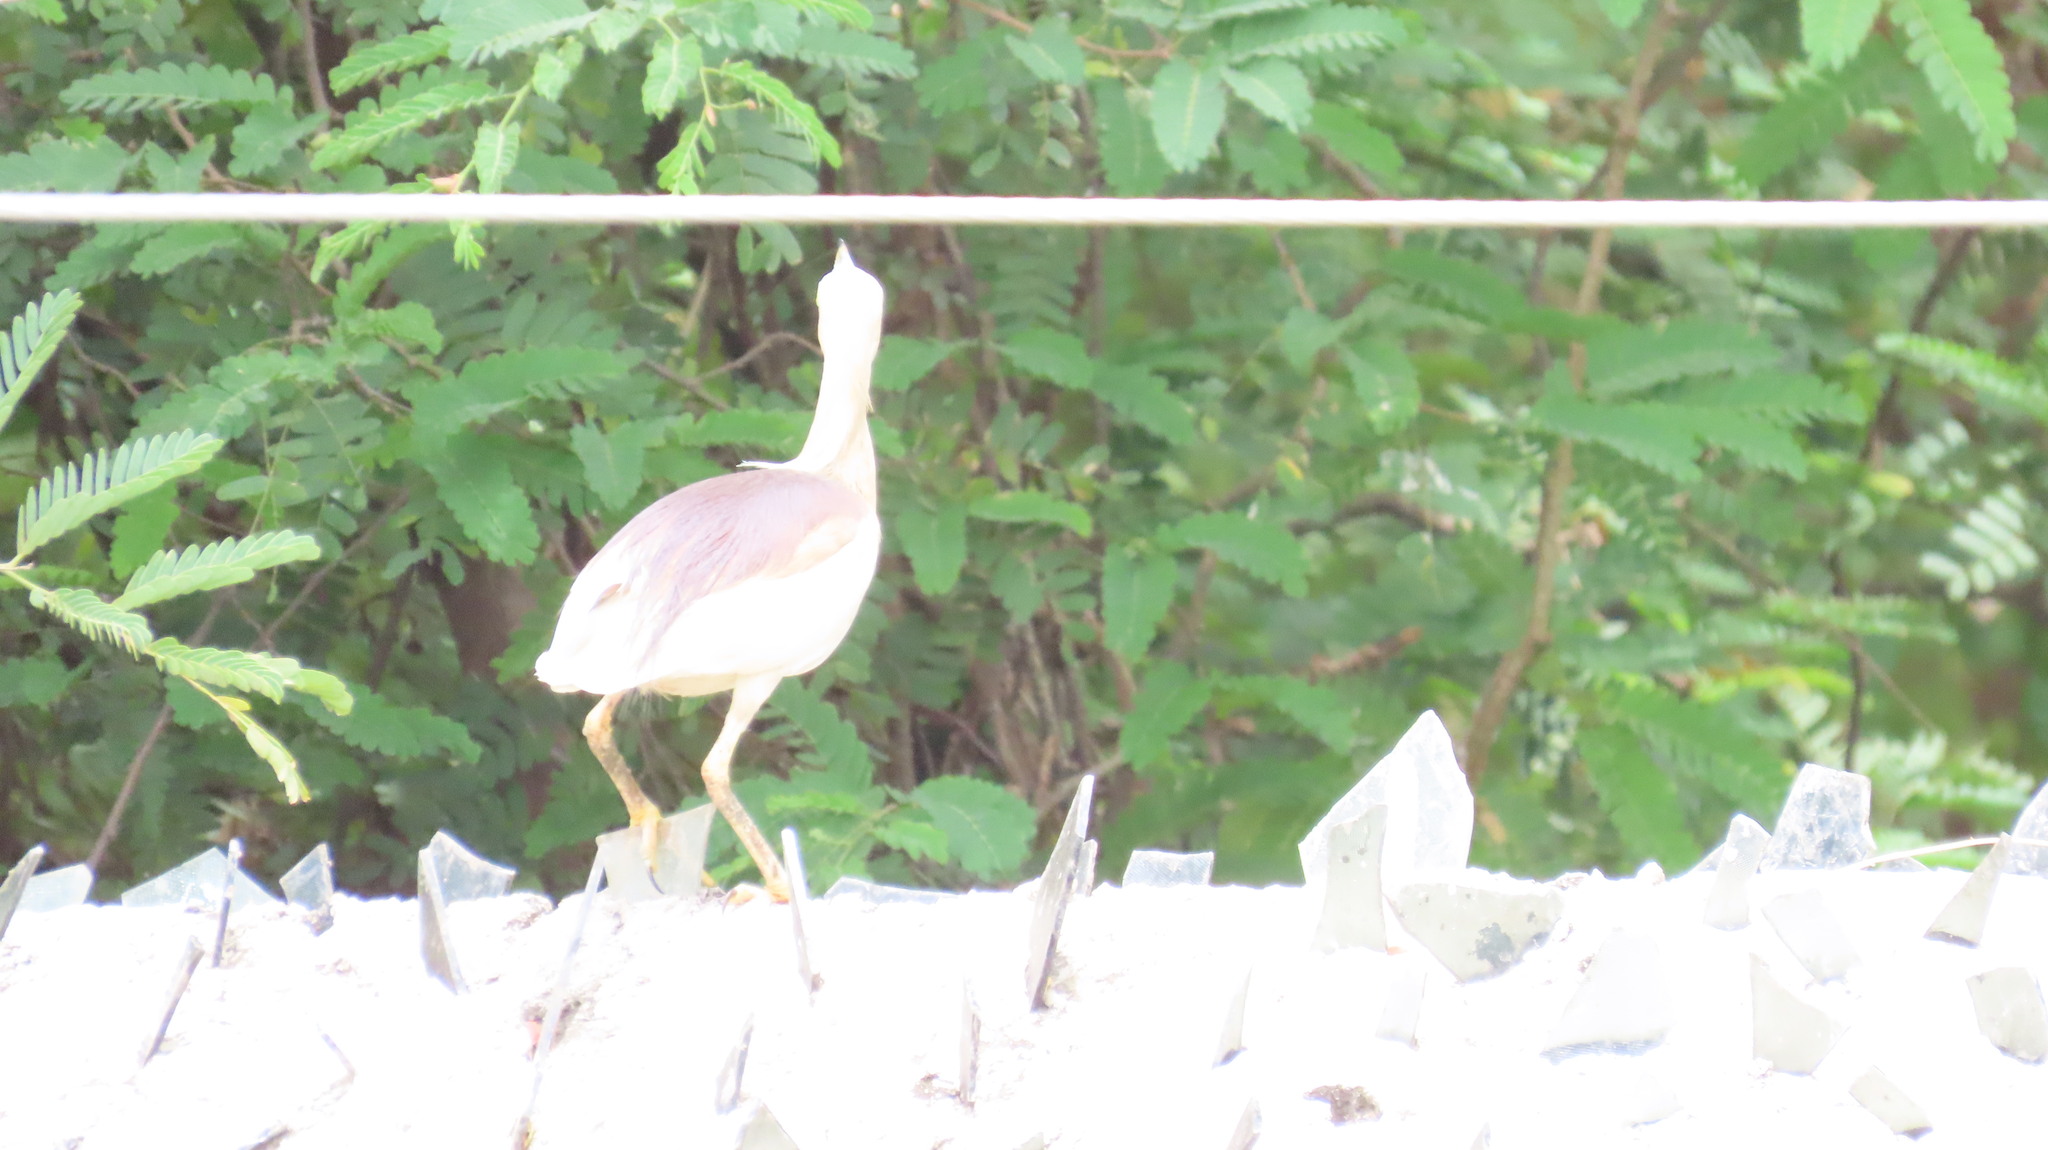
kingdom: Animalia
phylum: Chordata
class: Aves
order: Pelecaniformes
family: Ardeidae
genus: Ardeola
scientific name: Ardeola grayii
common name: Indian pond heron
